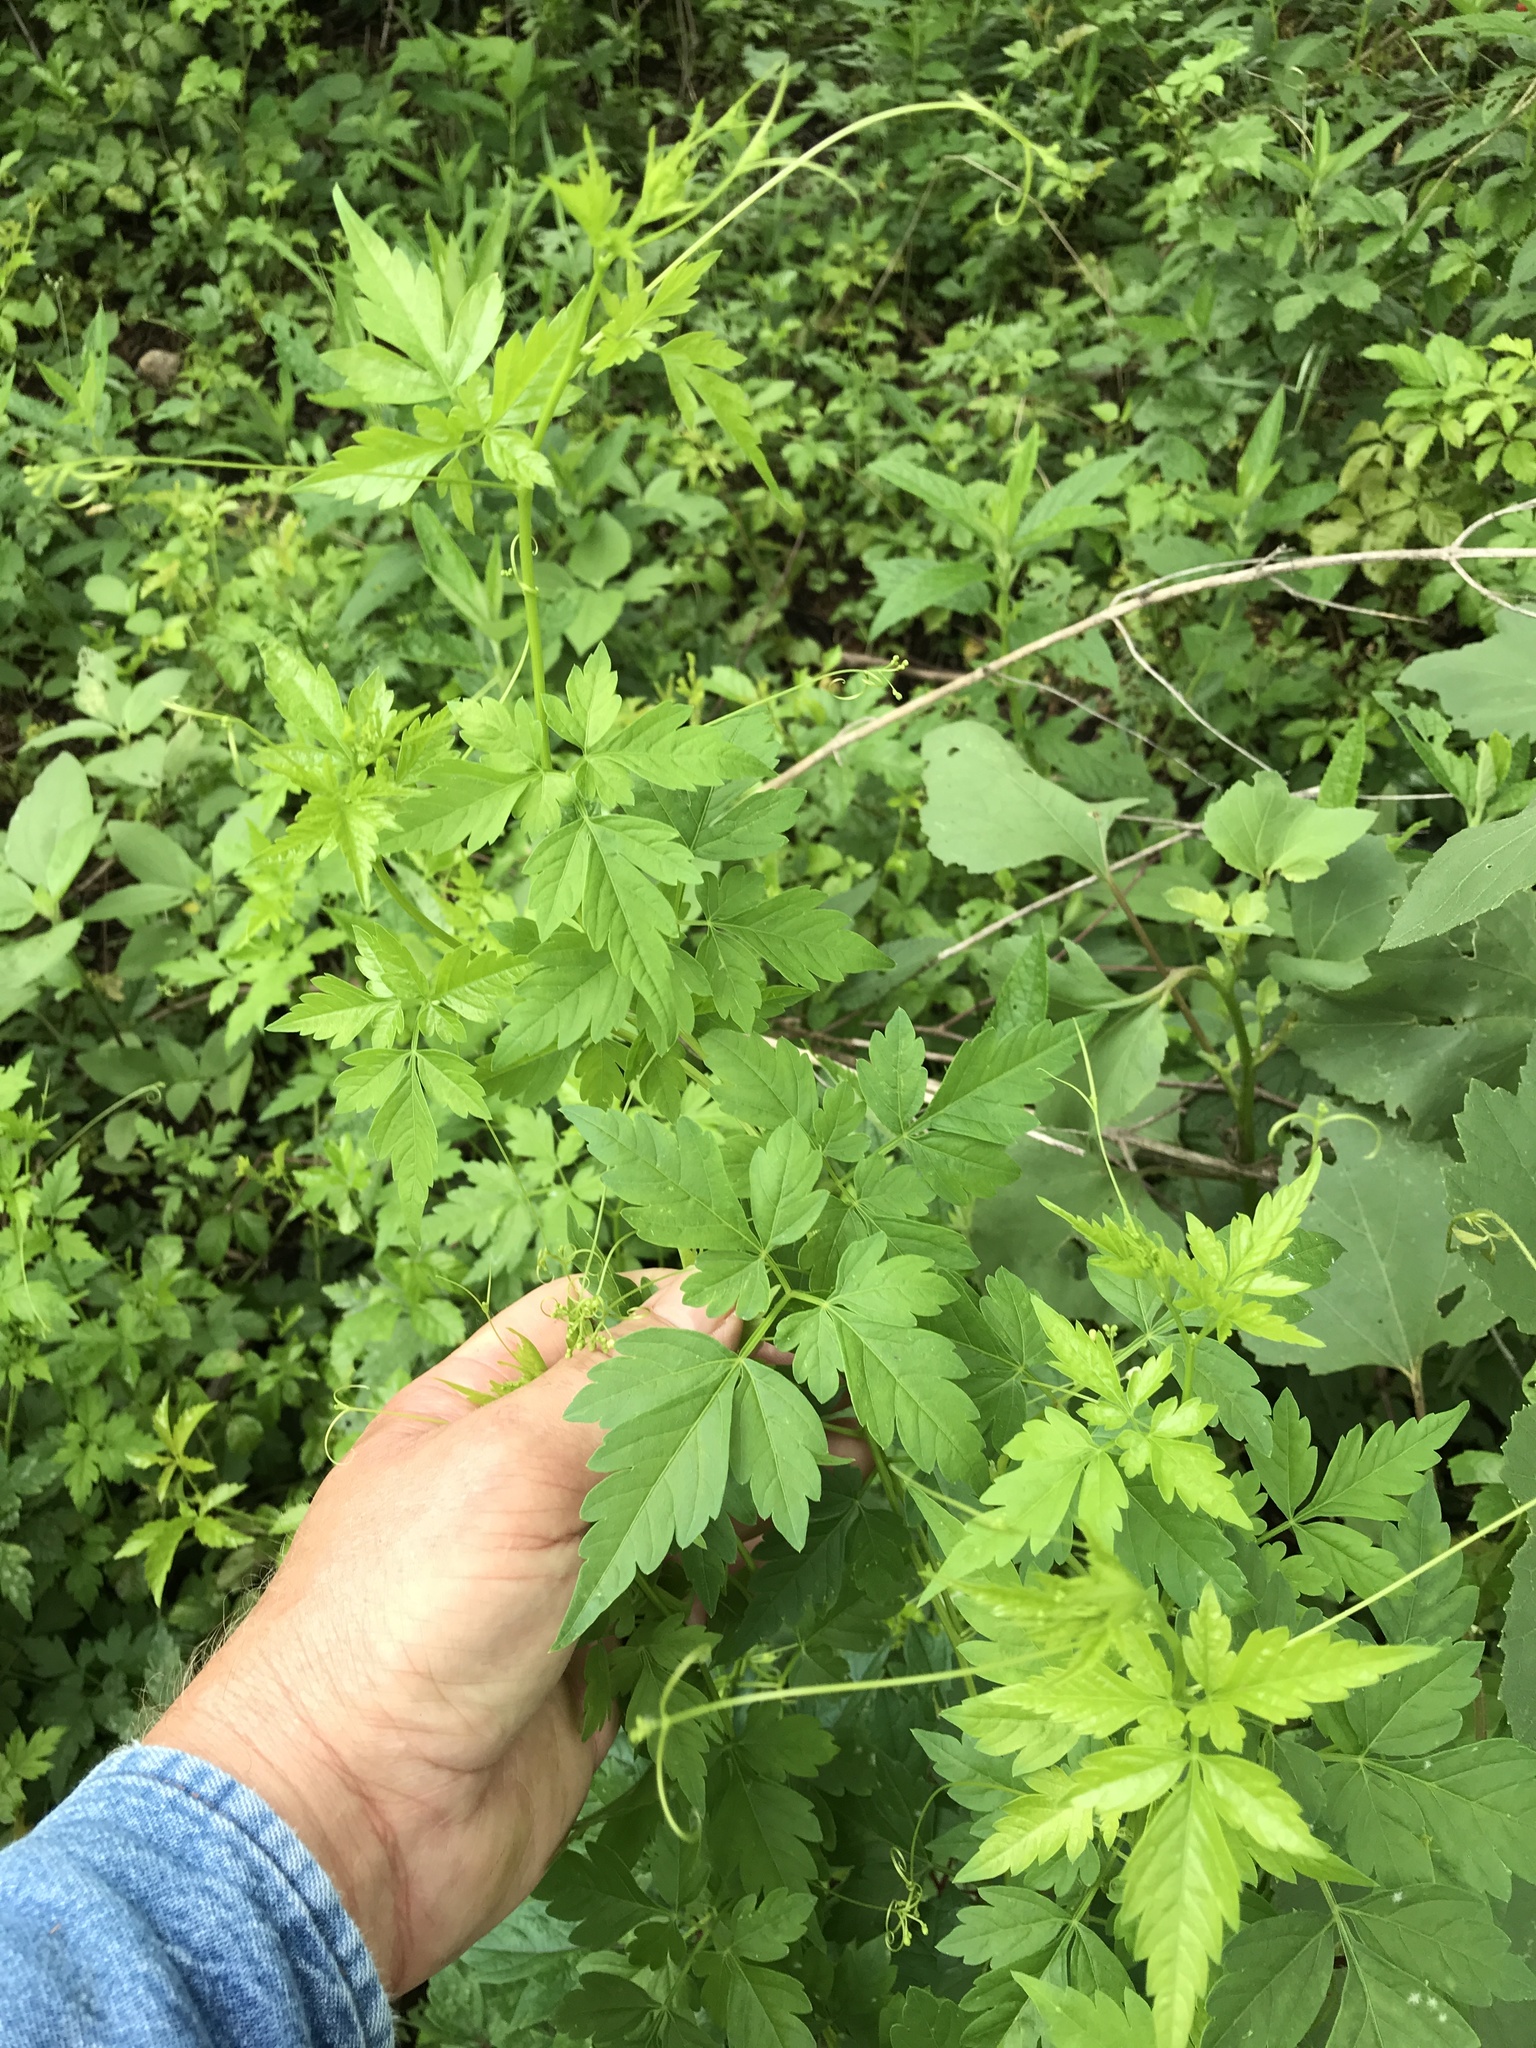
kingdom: Plantae
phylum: Tracheophyta
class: Magnoliopsida
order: Sapindales
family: Sapindaceae
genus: Cardiospermum
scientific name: Cardiospermum halicacabum
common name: Balloon vine
